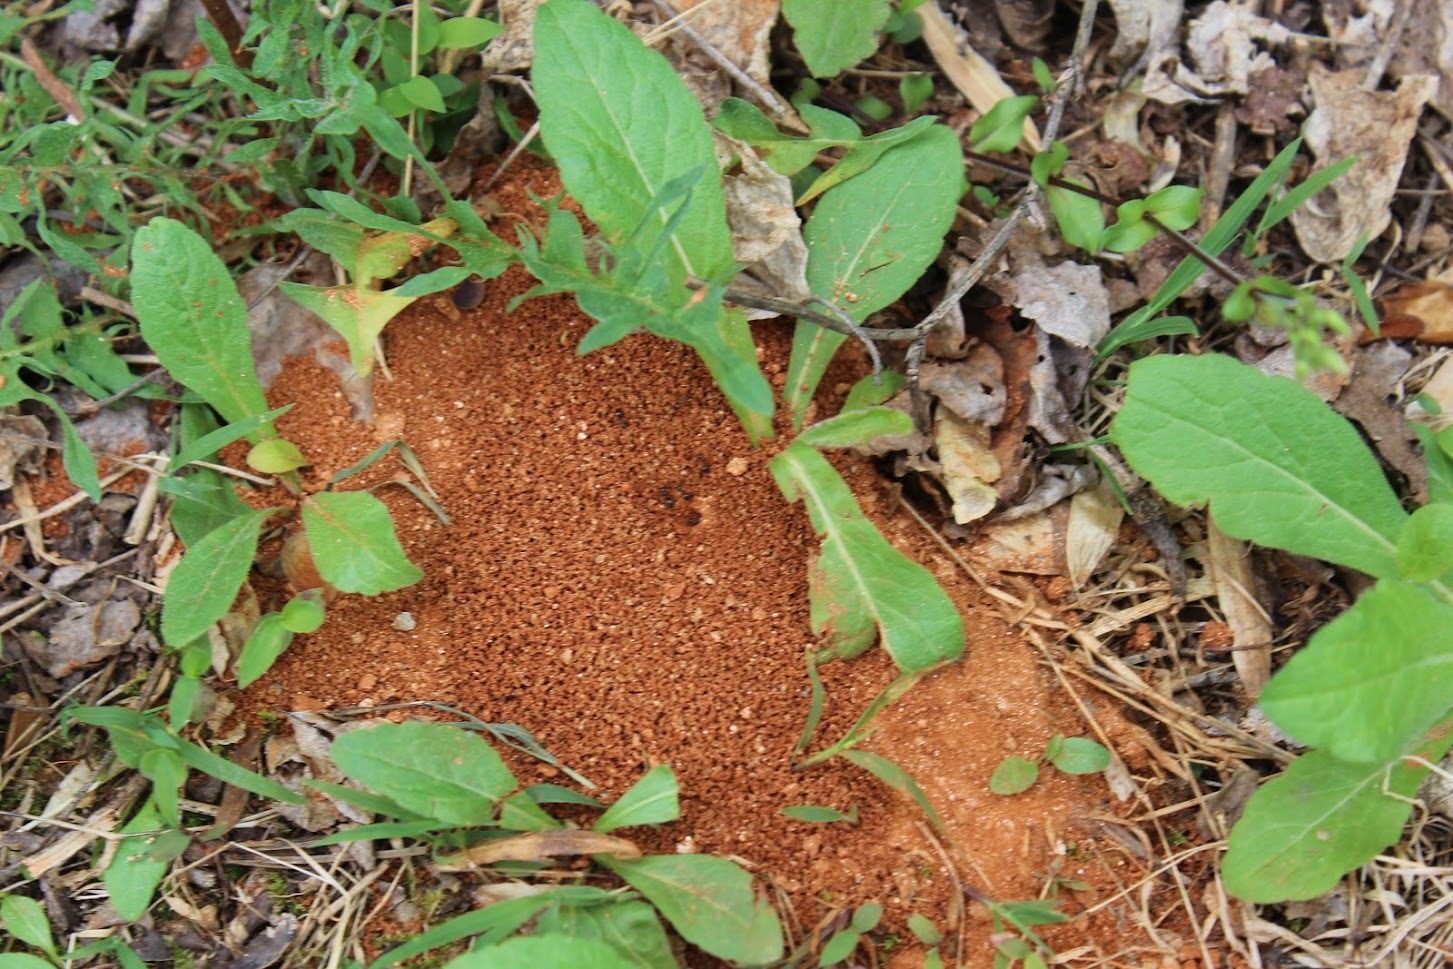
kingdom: Animalia
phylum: Arthropoda
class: Insecta
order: Hymenoptera
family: Formicidae
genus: Prenolepis
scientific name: Prenolepis imparis
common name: Small honey ant
